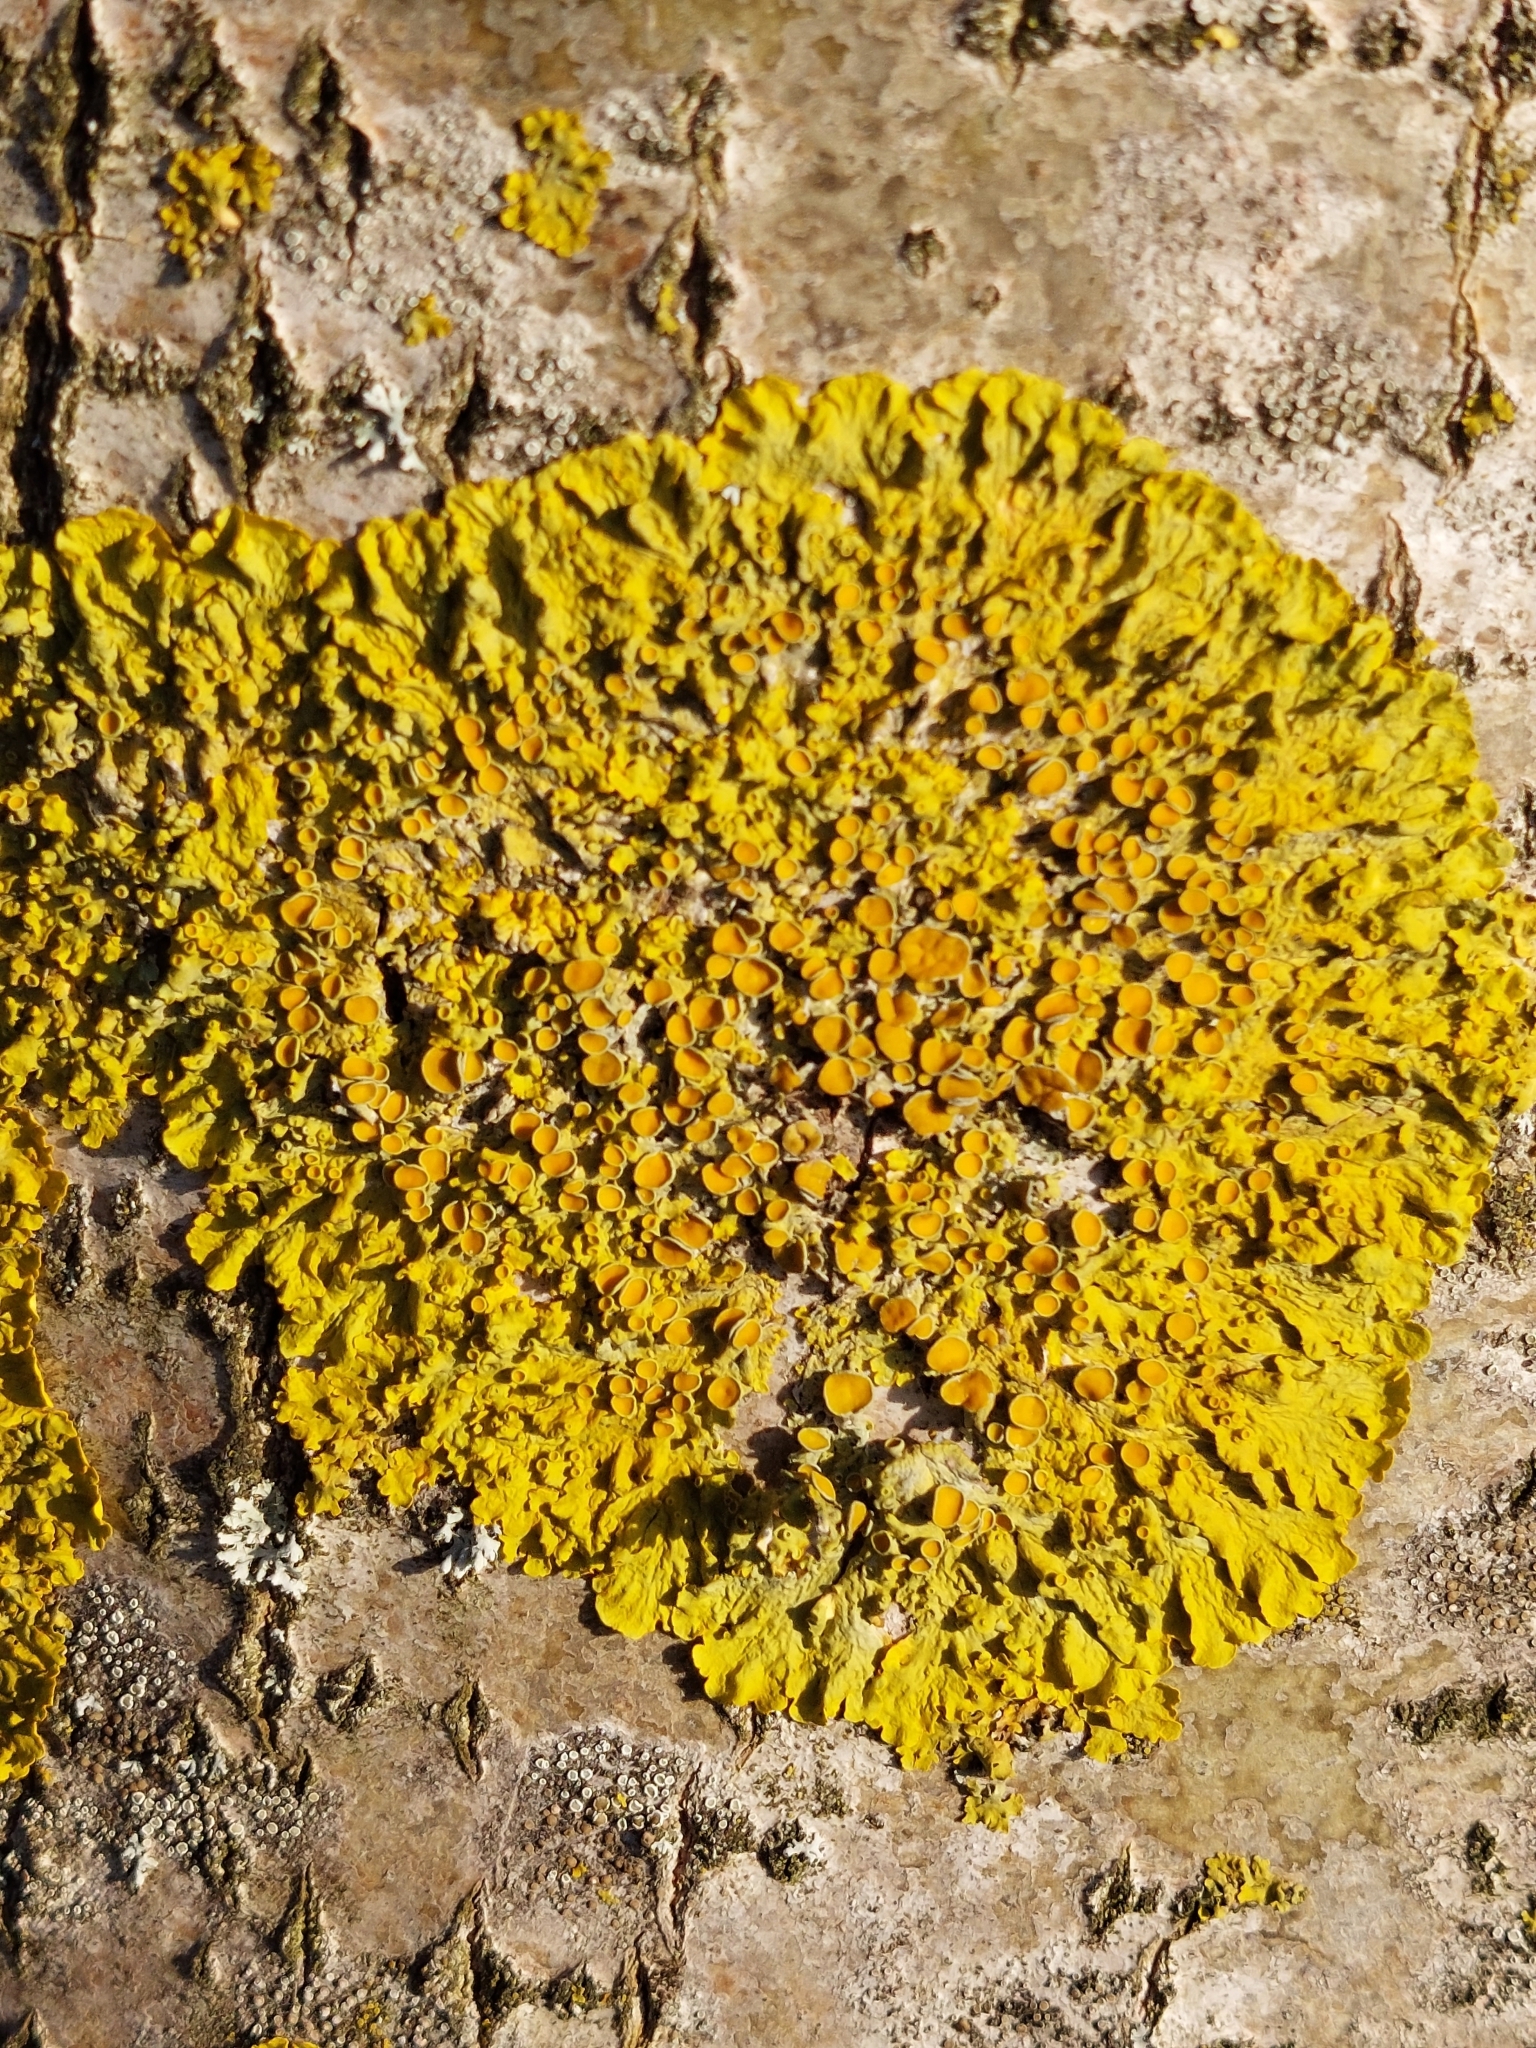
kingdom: Fungi
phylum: Ascomycota
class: Lecanoromycetes
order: Teloschistales
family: Teloschistaceae
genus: Xanthoria
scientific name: Xanthoria parietina
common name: Common orange lichen
